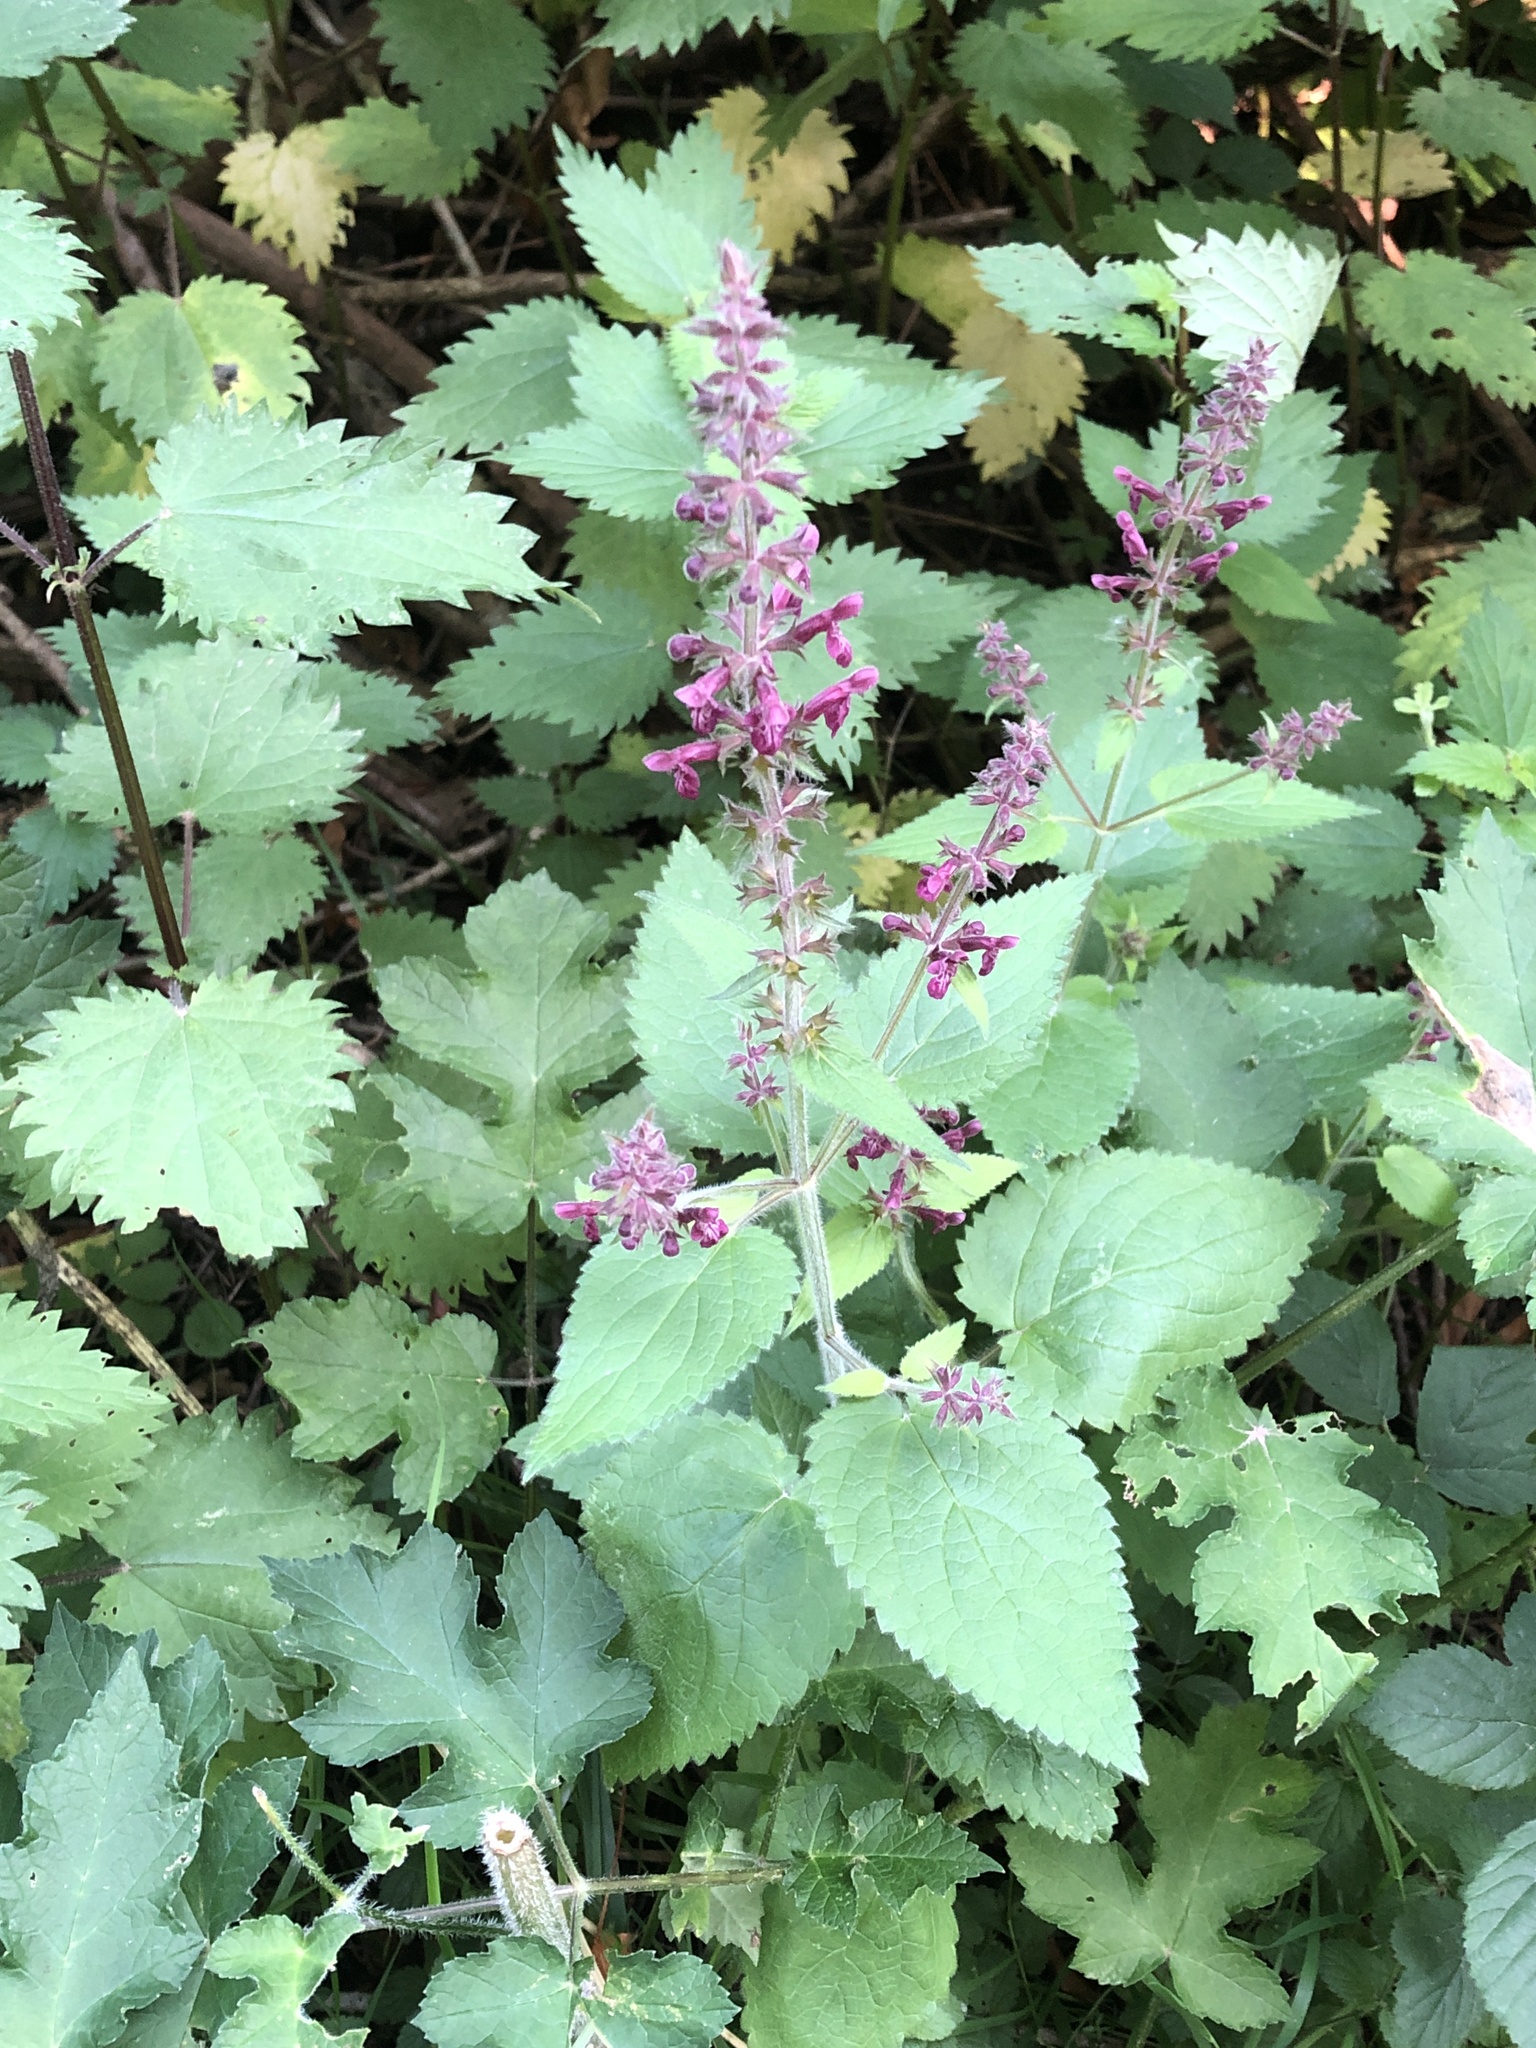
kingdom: Plantae
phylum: Tracheophyta
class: Magnoliopsida
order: Lamiales
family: Lamiaceae
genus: Stachys
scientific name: Stachys sylvatica
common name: Hedge woundwort
